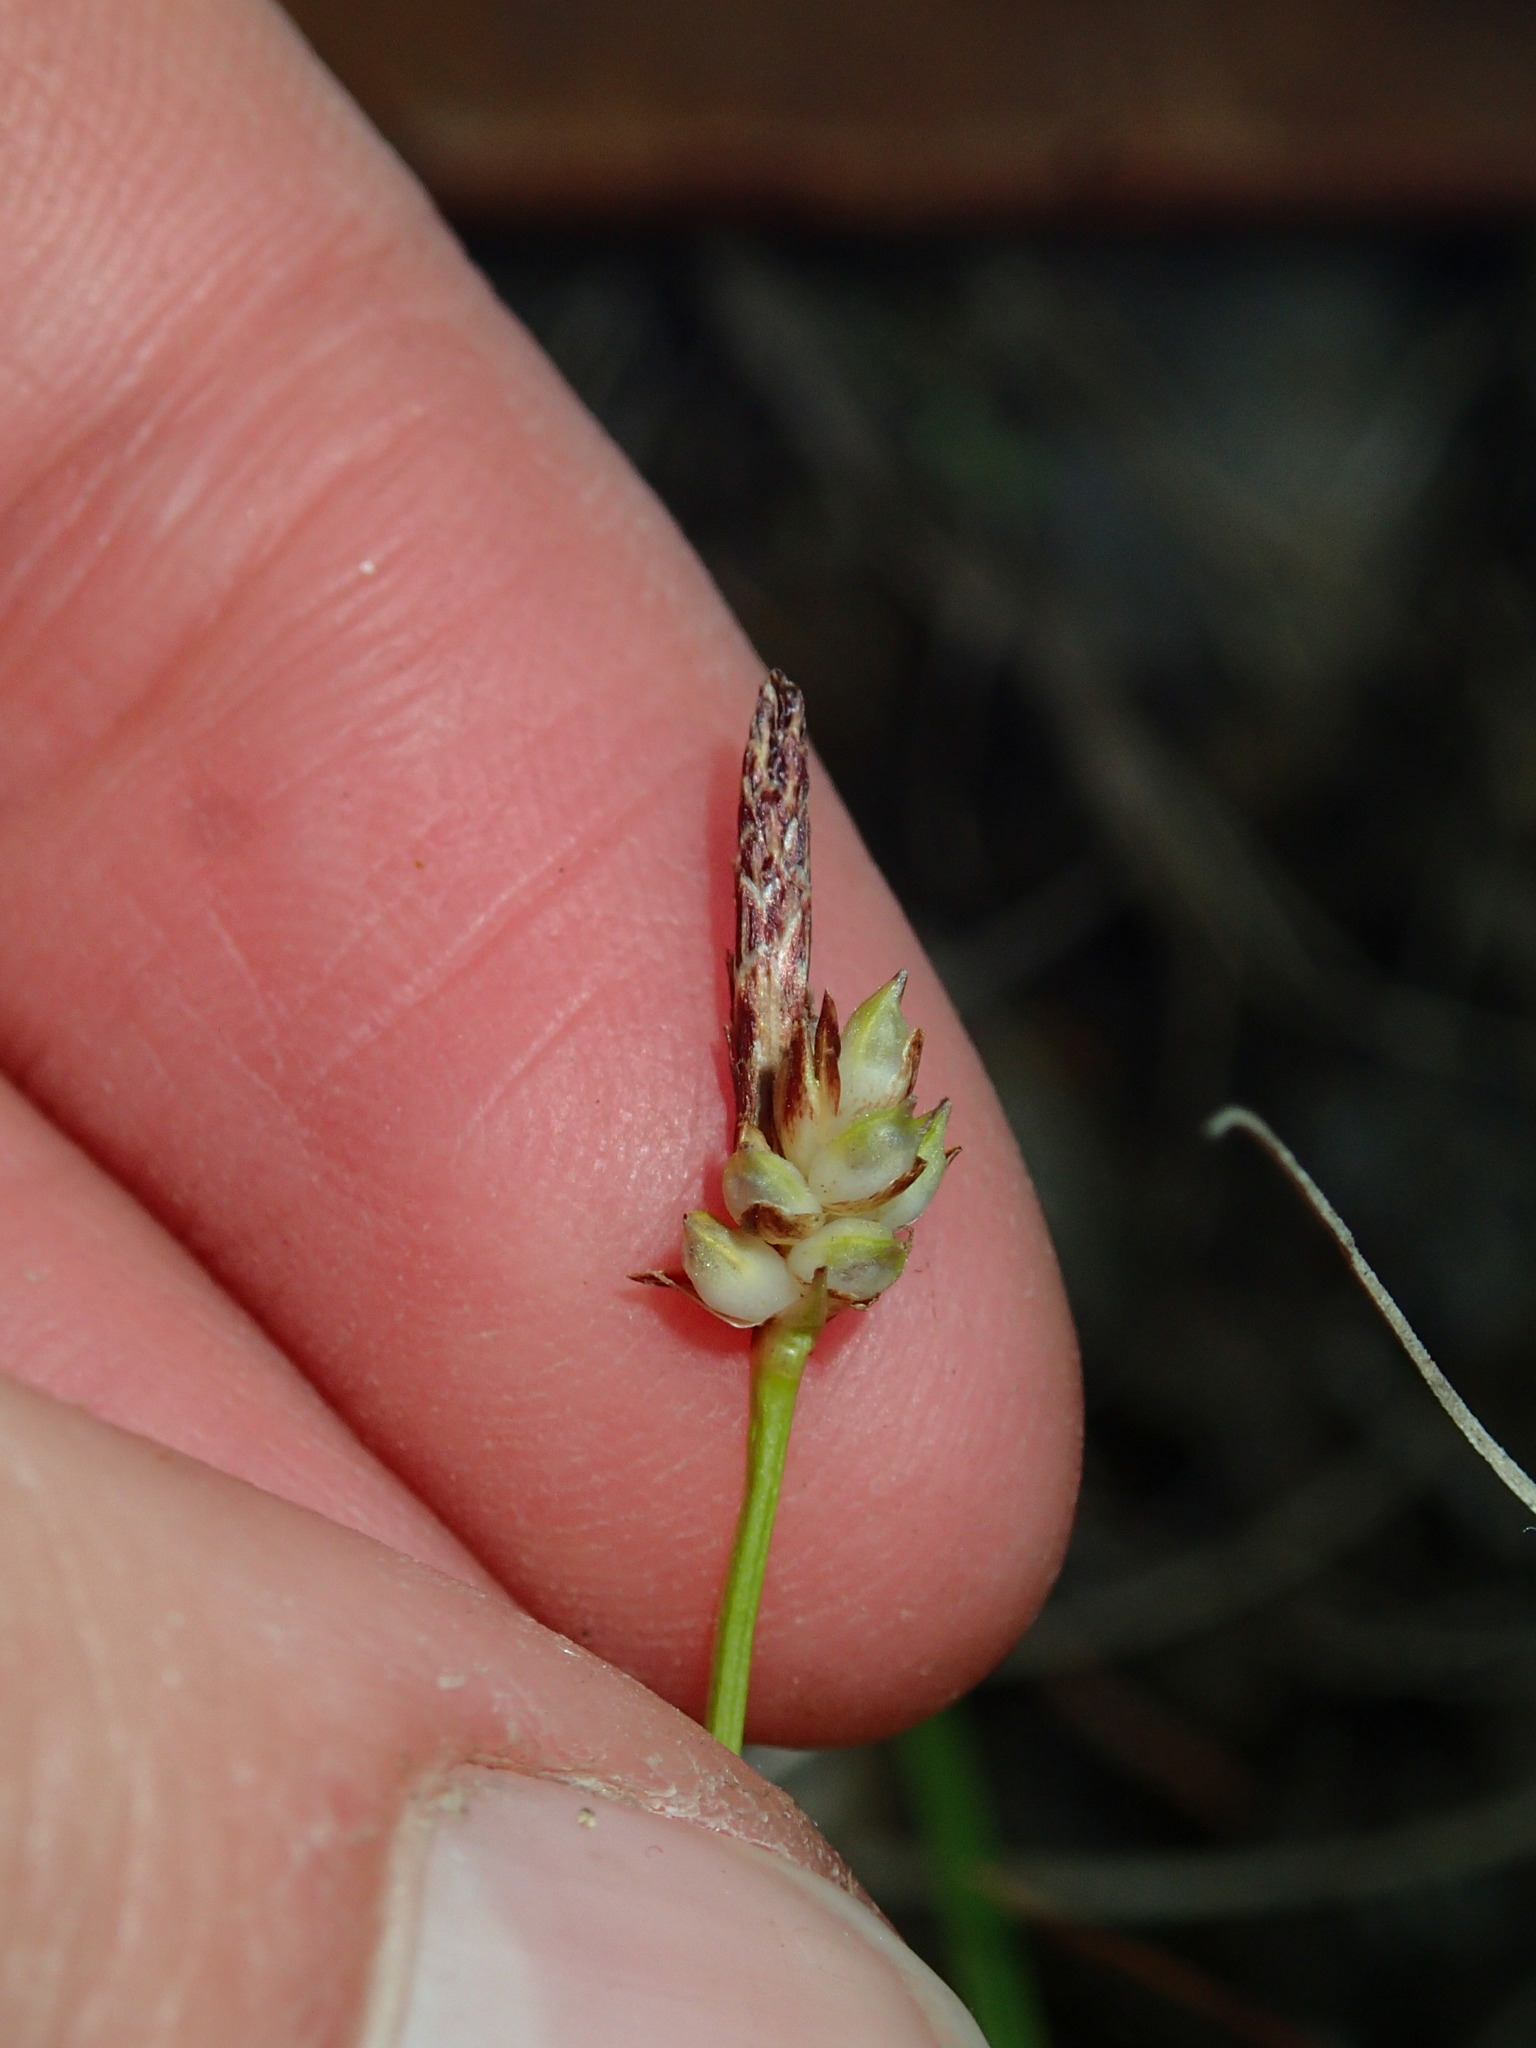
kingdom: Plantae
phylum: Tracheophyta
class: Liliopsida
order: Poales
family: Cyperaceae
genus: Carex
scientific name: Carex umbellata
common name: Early oak sedge
